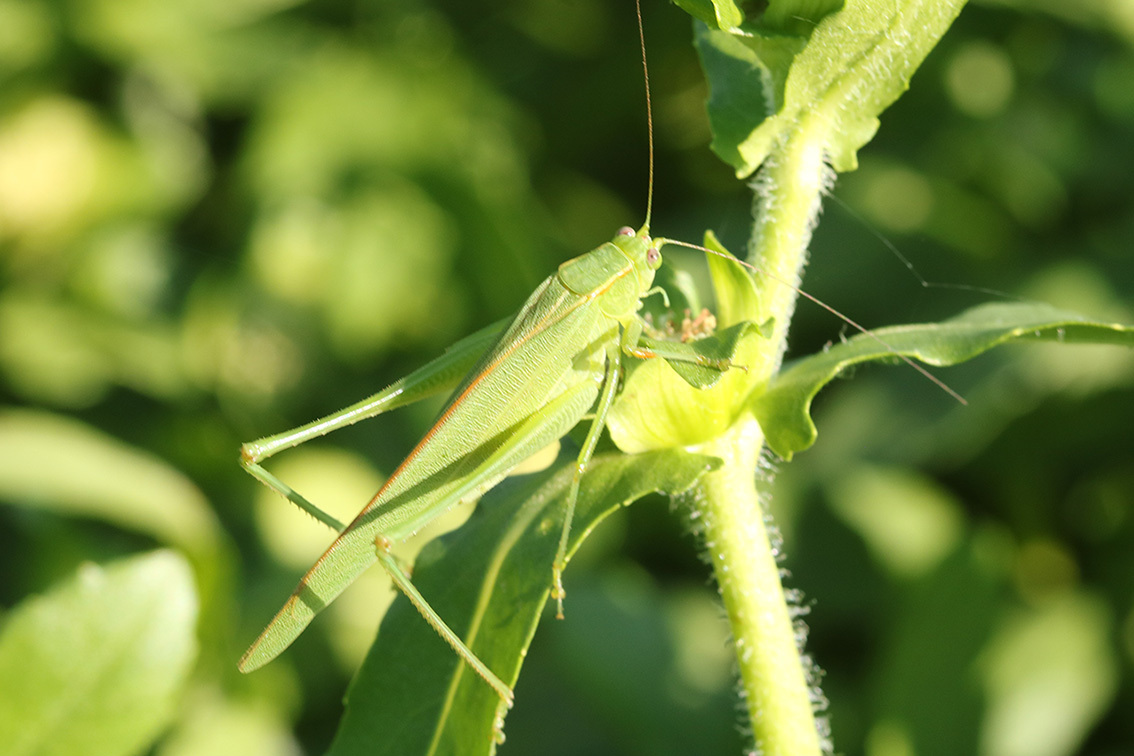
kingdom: Animalia
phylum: Arthropoda
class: Insecta
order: Orthoptera
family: Tettigoniidae
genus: Ligocatinus
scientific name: Ligocatinus spinatus
